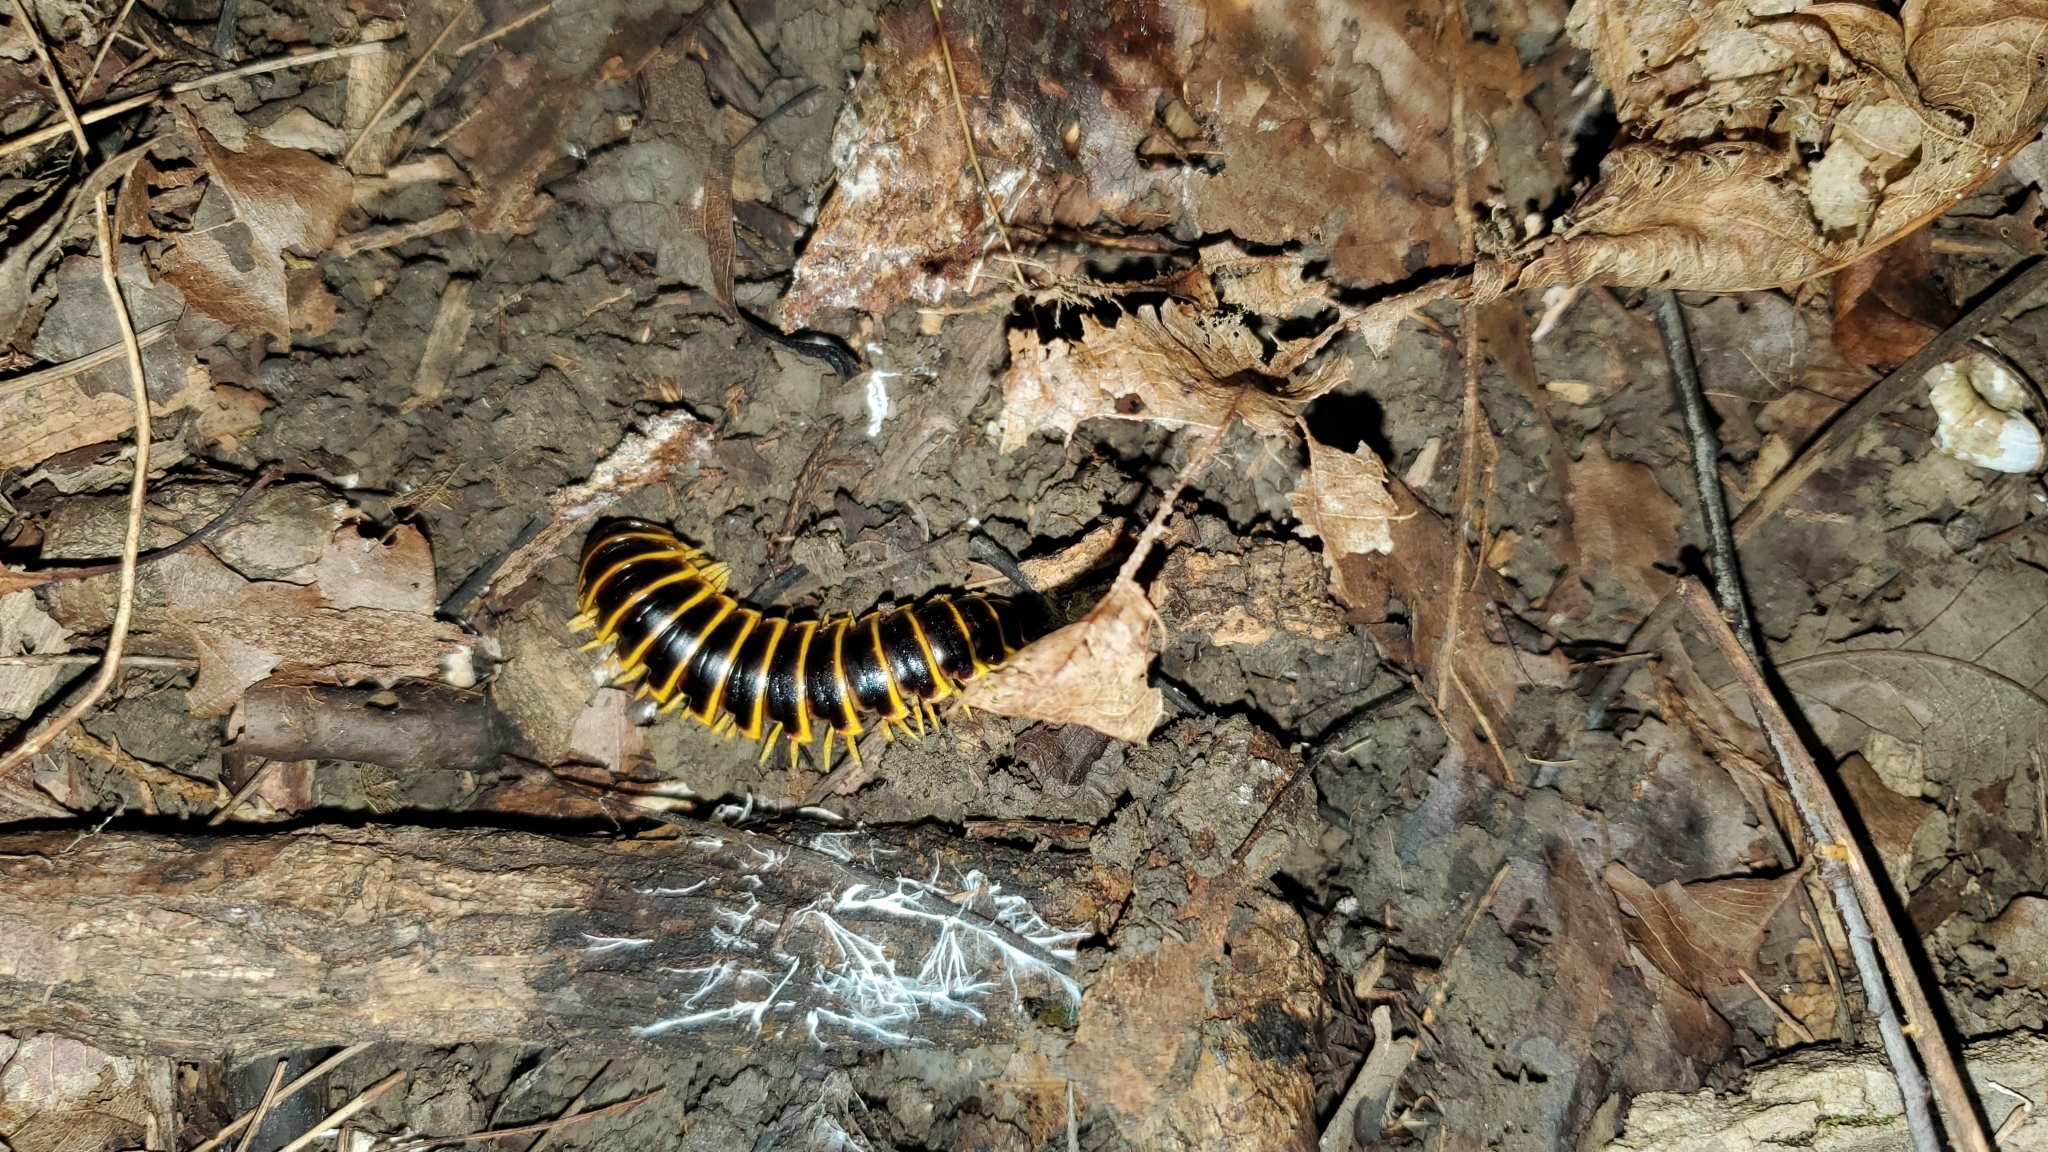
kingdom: Animalia
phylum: Arthropoda
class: Diplopoda
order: Polydesmida
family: Xystodesmidae
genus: Apheloria
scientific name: Apheloria virginiensis
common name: Black-and-gold flat millipede
